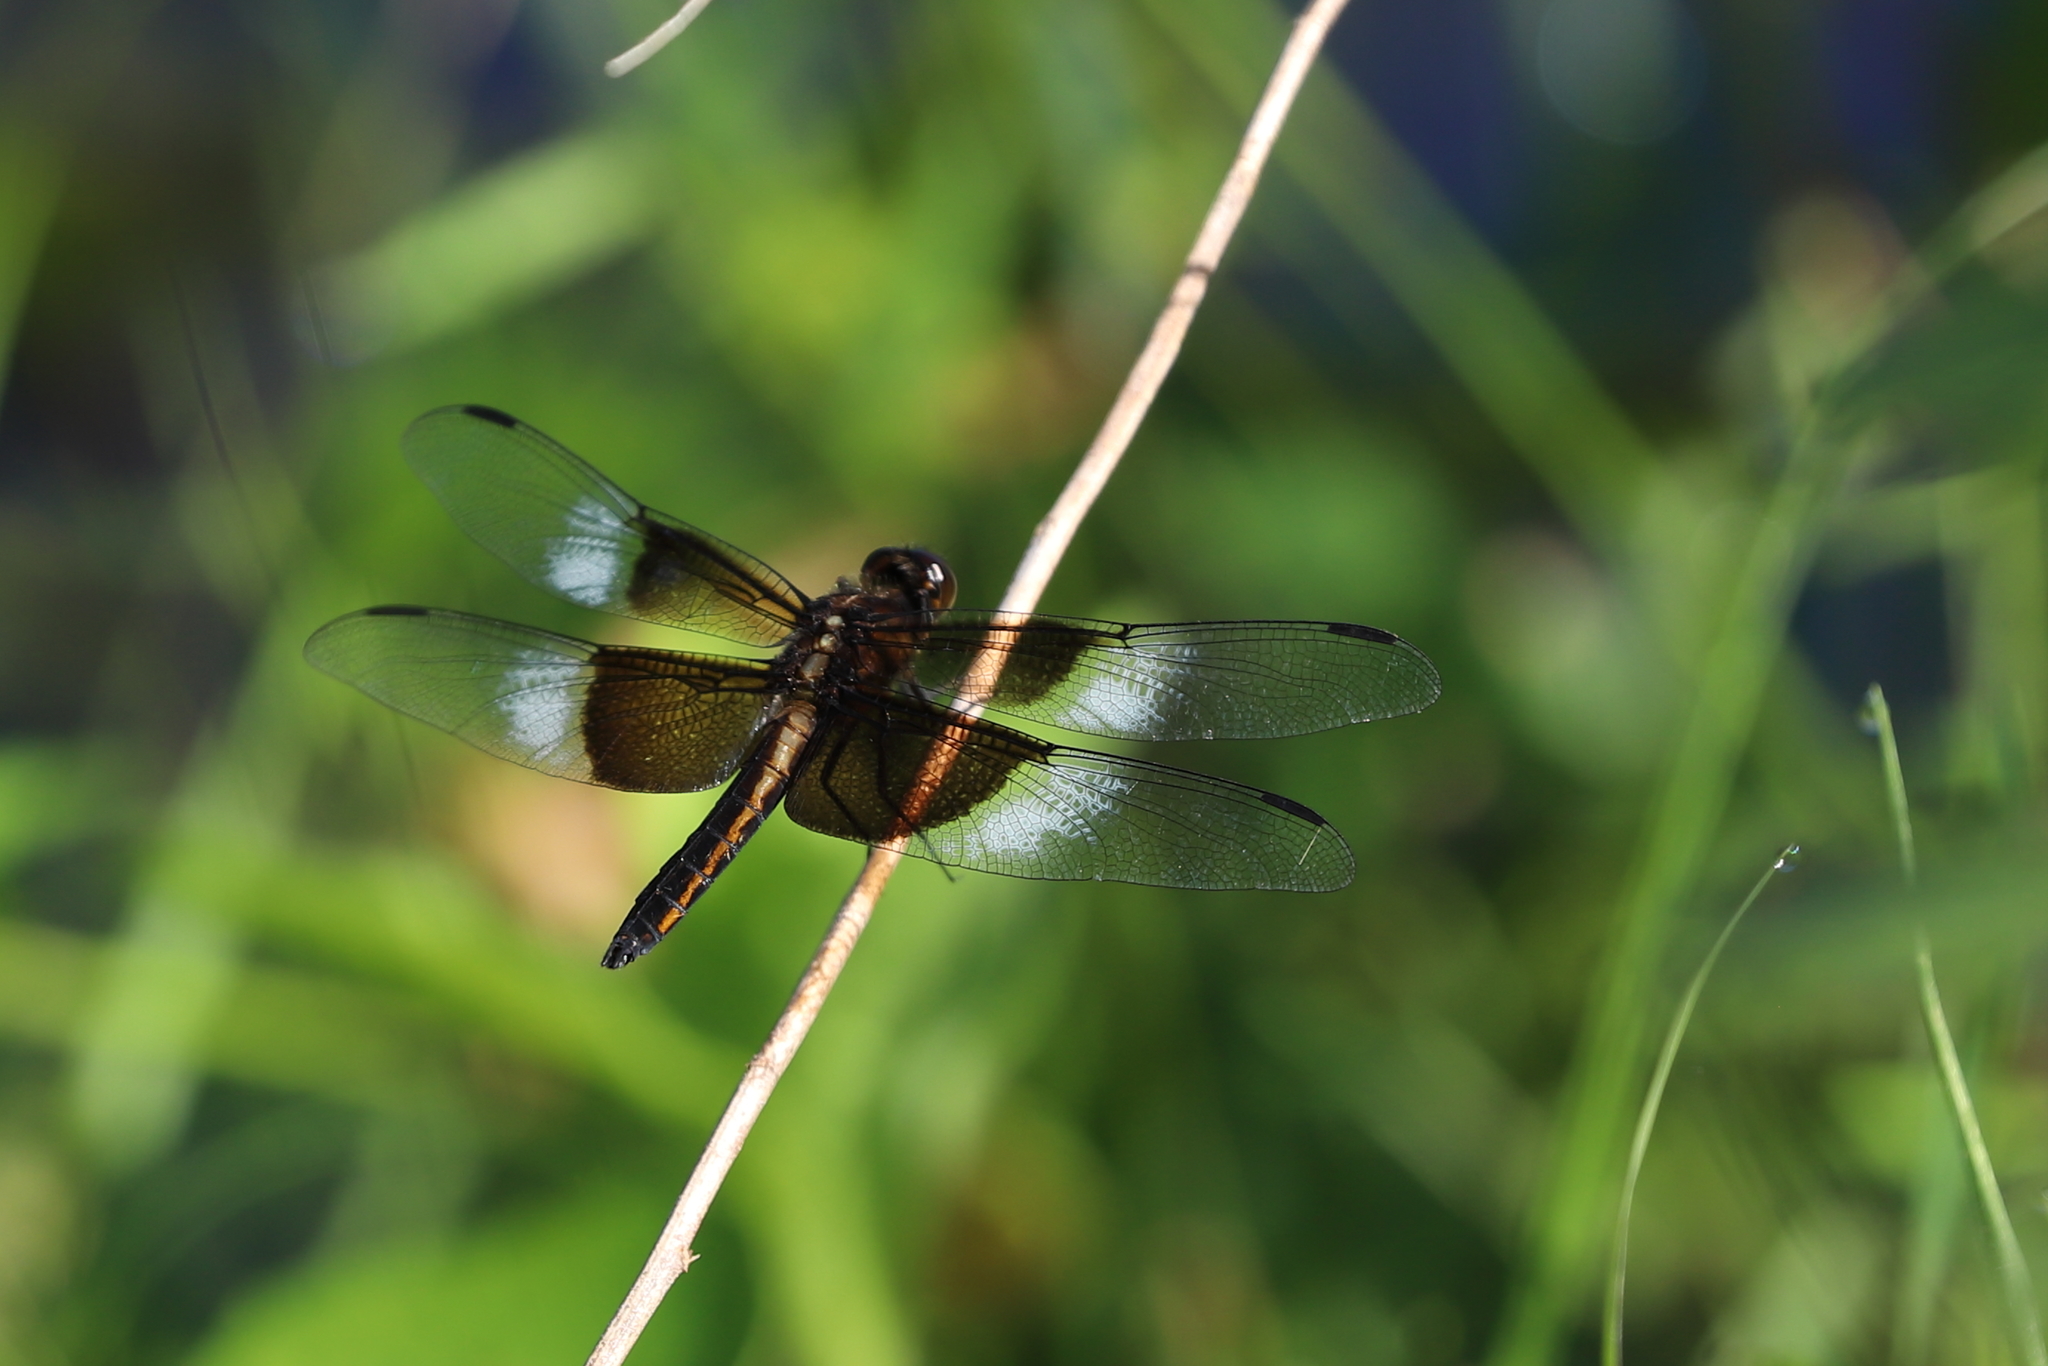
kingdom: Animalia
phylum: Arthropoda
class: Insecta
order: Odonata
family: Libellulidae
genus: Libellula
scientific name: Libellula luctuosa
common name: Widow skimmer
